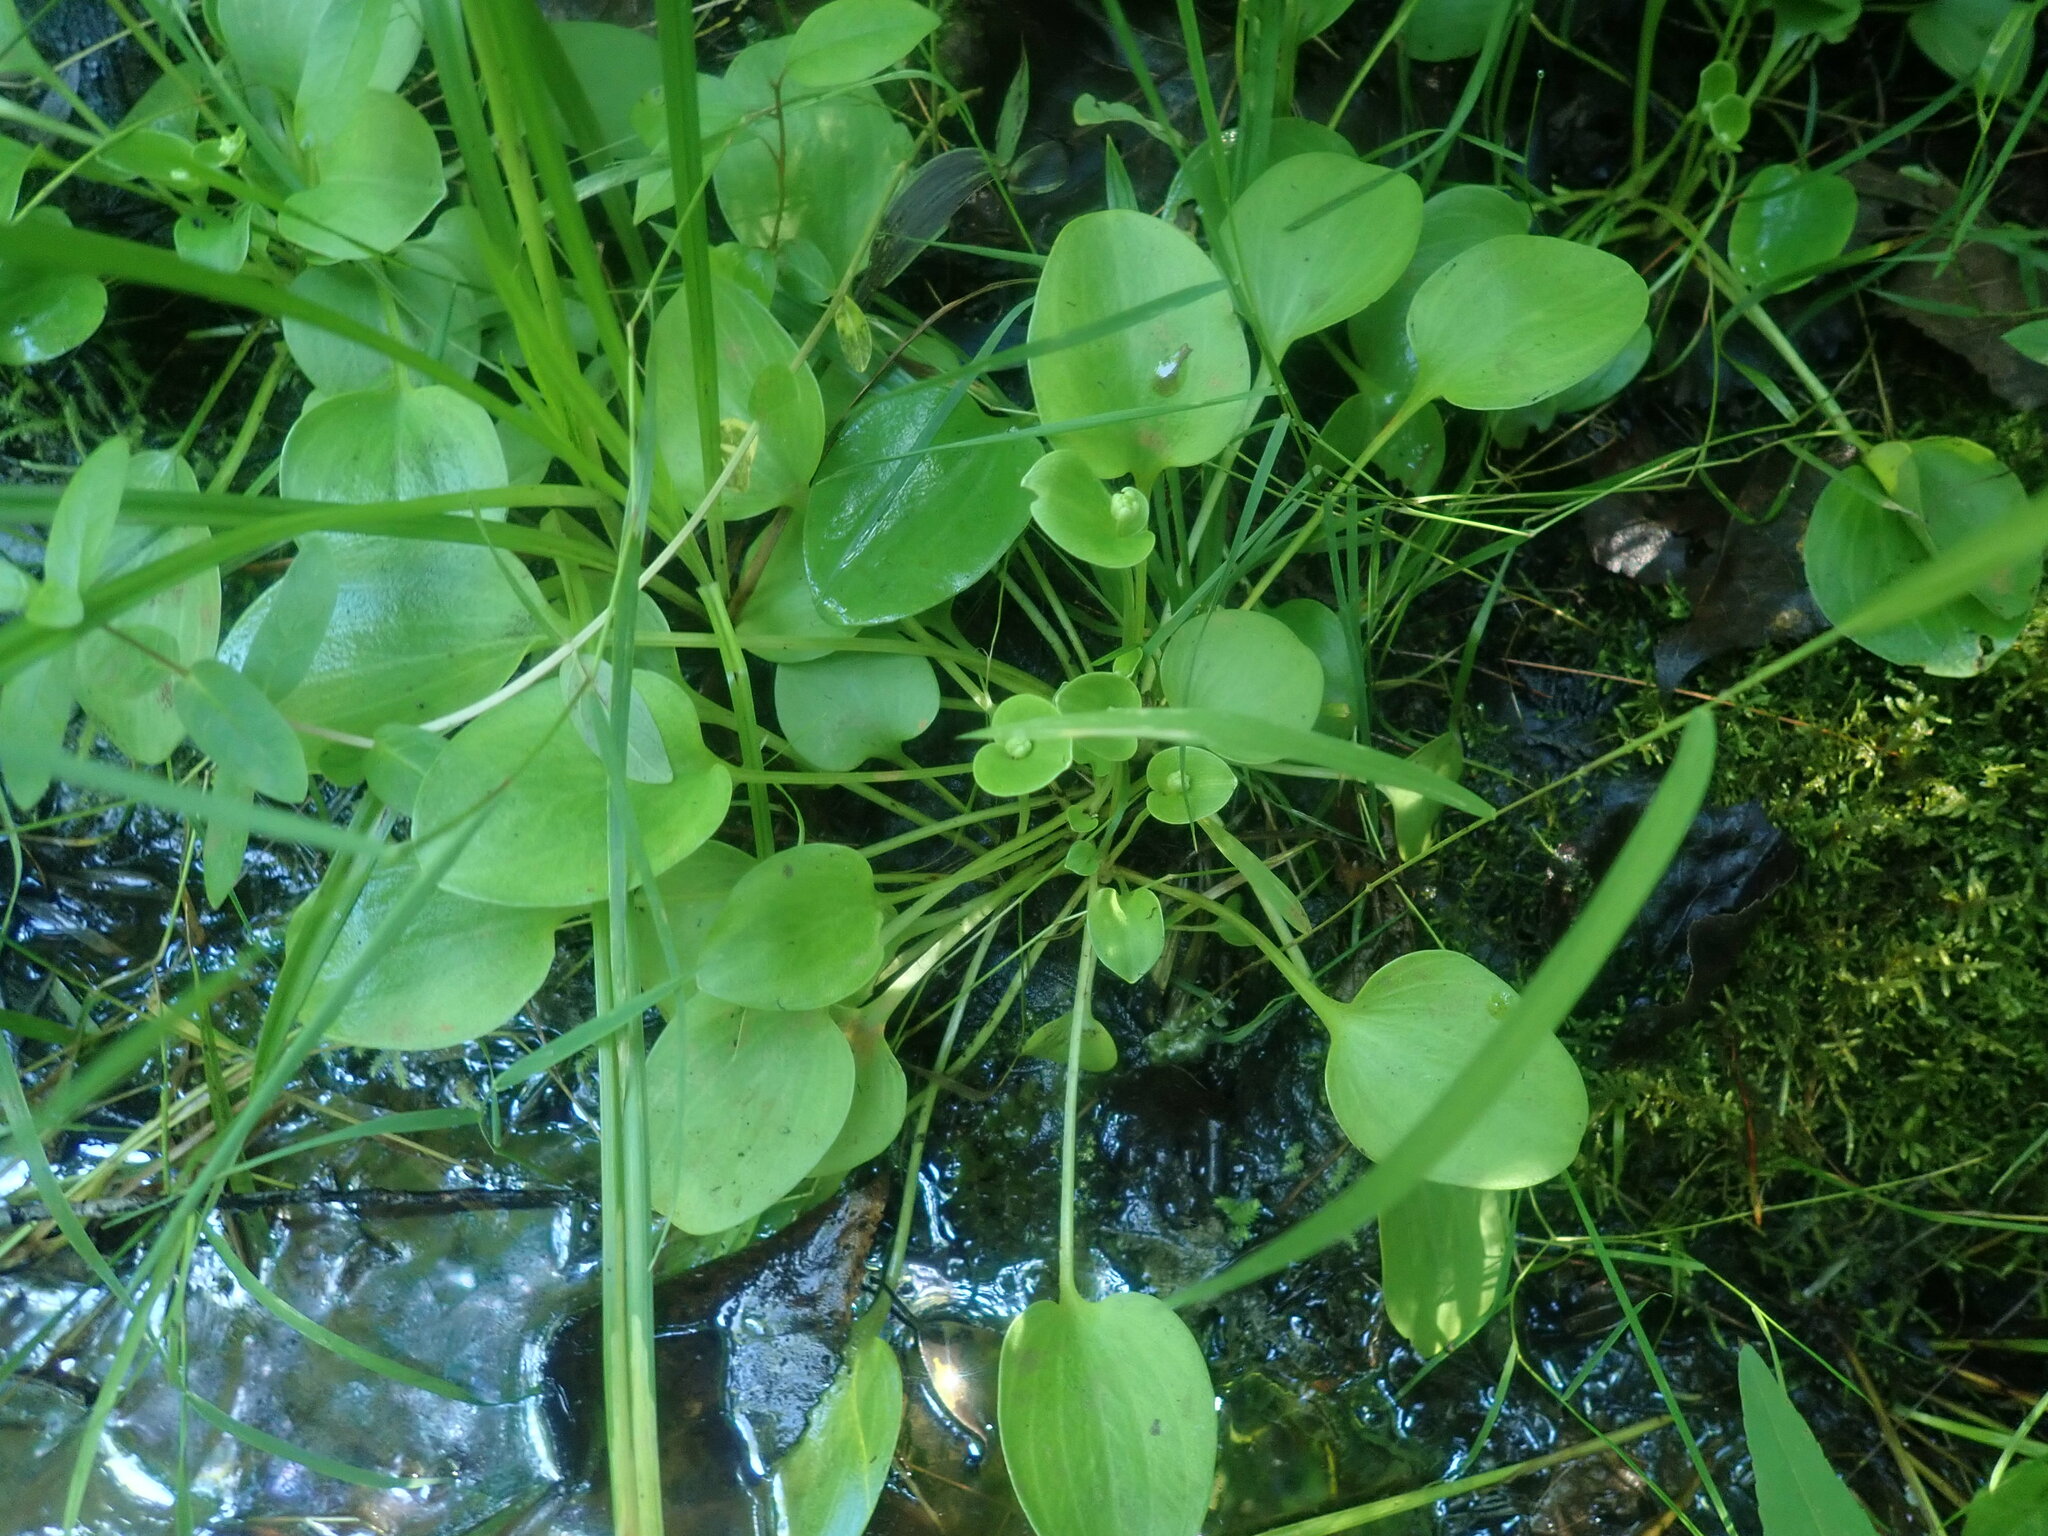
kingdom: Plantae
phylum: Tracheophyta
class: Magnoliopsida
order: Celastrales
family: Parnassiaceae
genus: Parnassia
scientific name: Parnassia glauca
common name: American grass-of-parnassus
